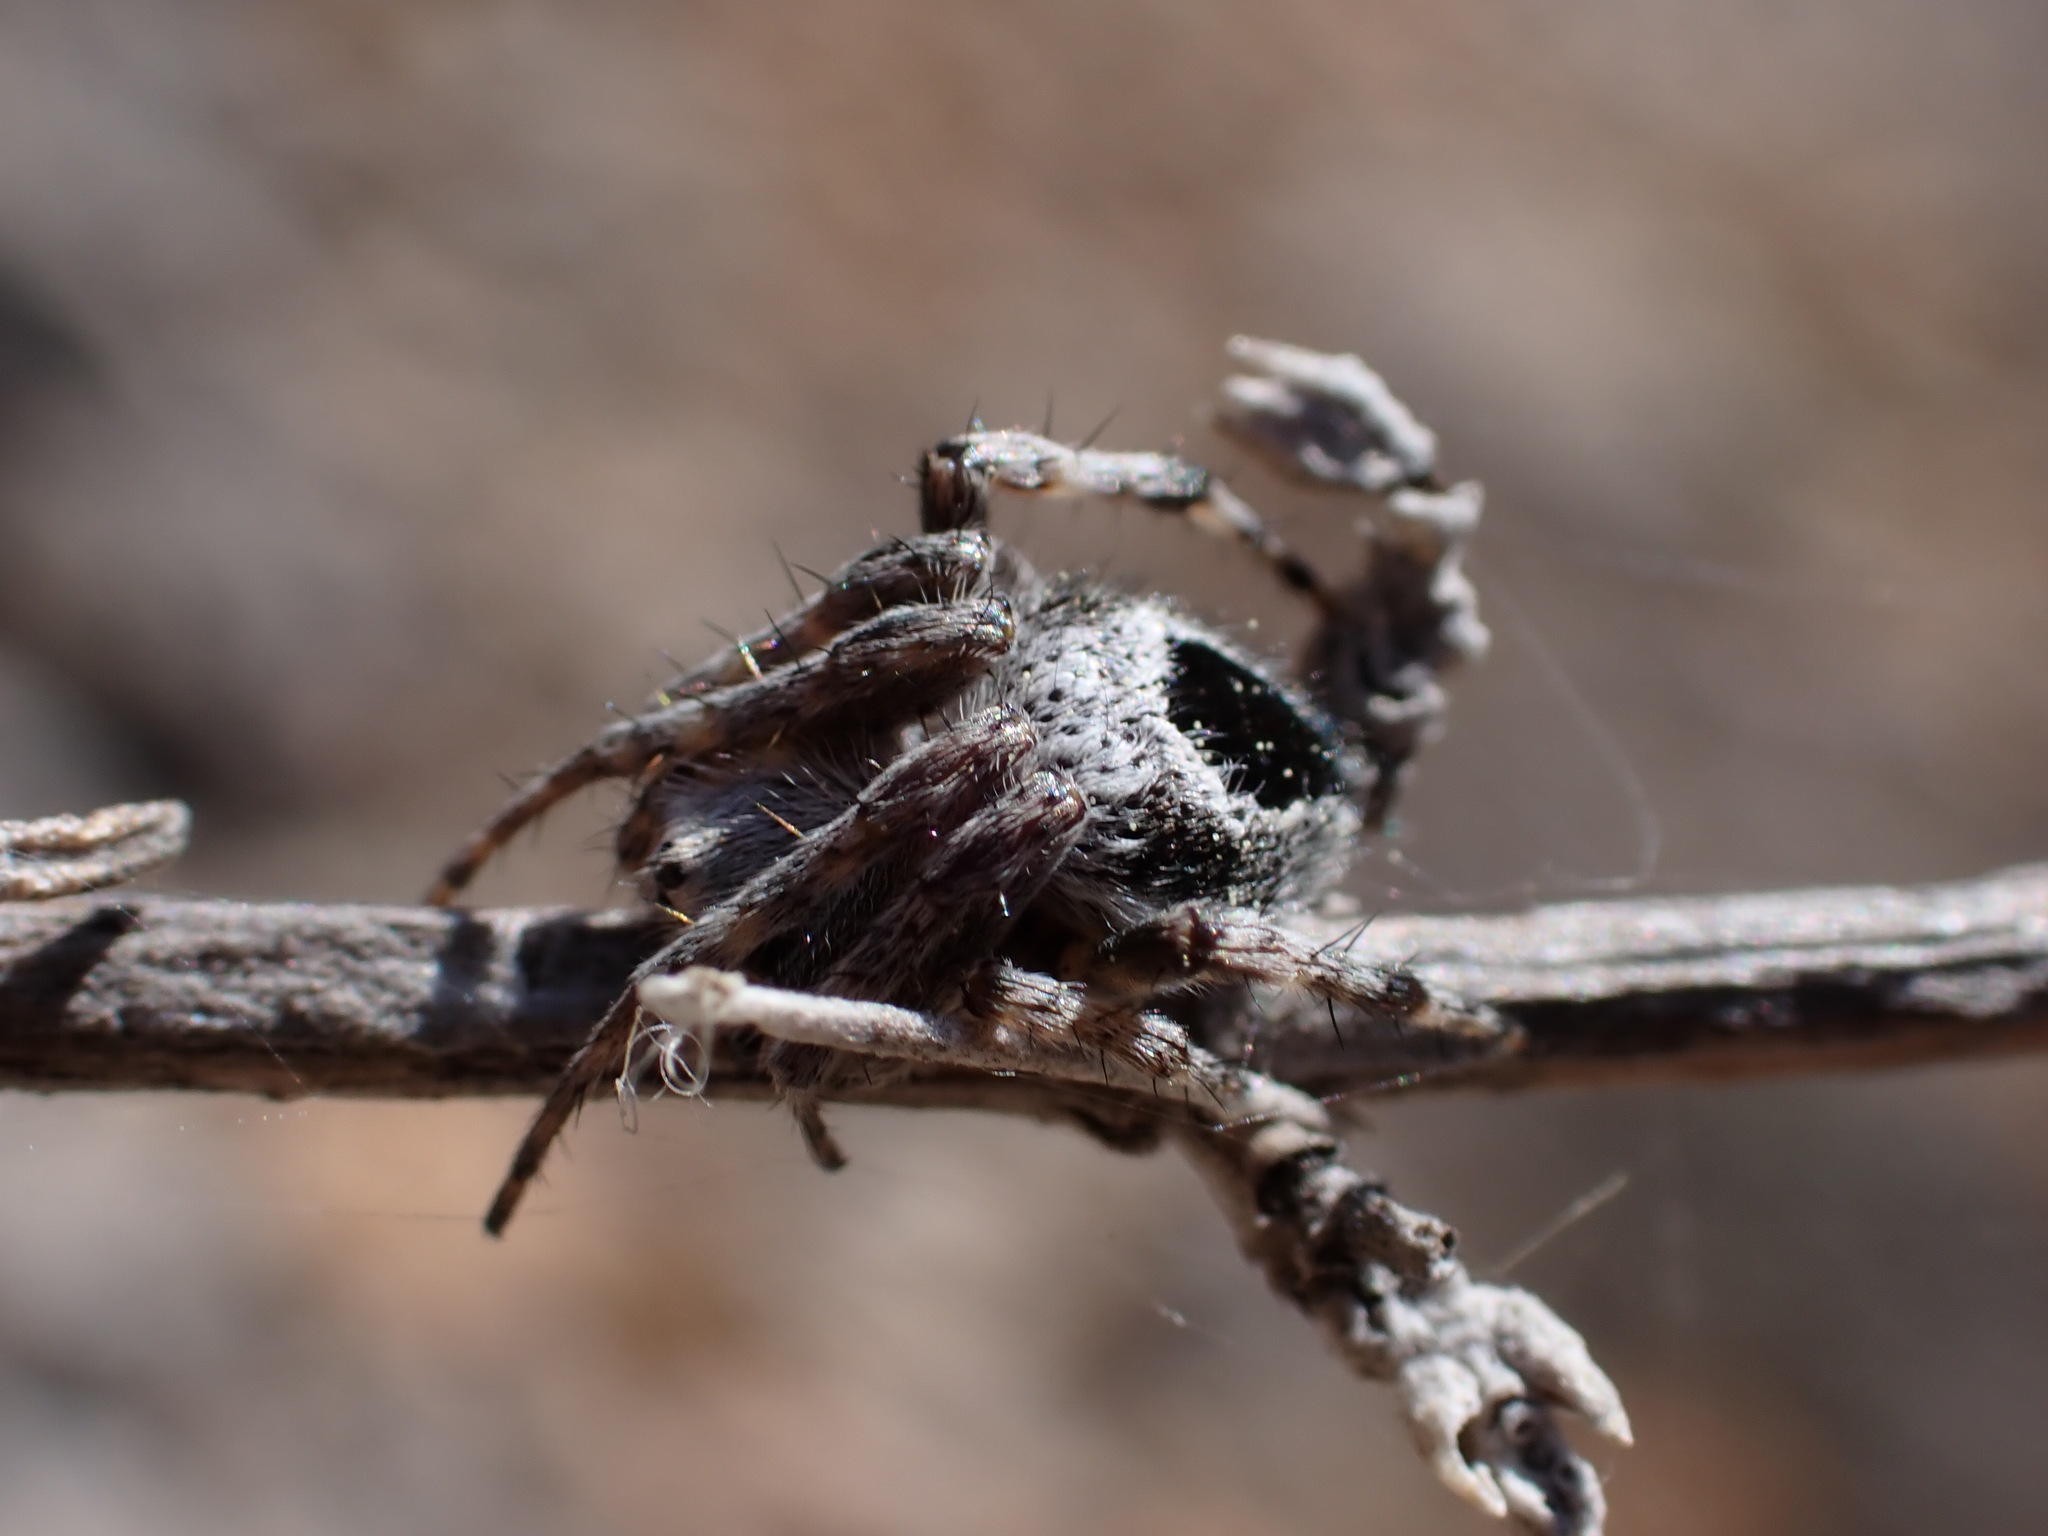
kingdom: Animalia
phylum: Arthropoda
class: Arachnida
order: Araneae
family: Araneidae
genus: Agalenatea
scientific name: Agalenatea redii
